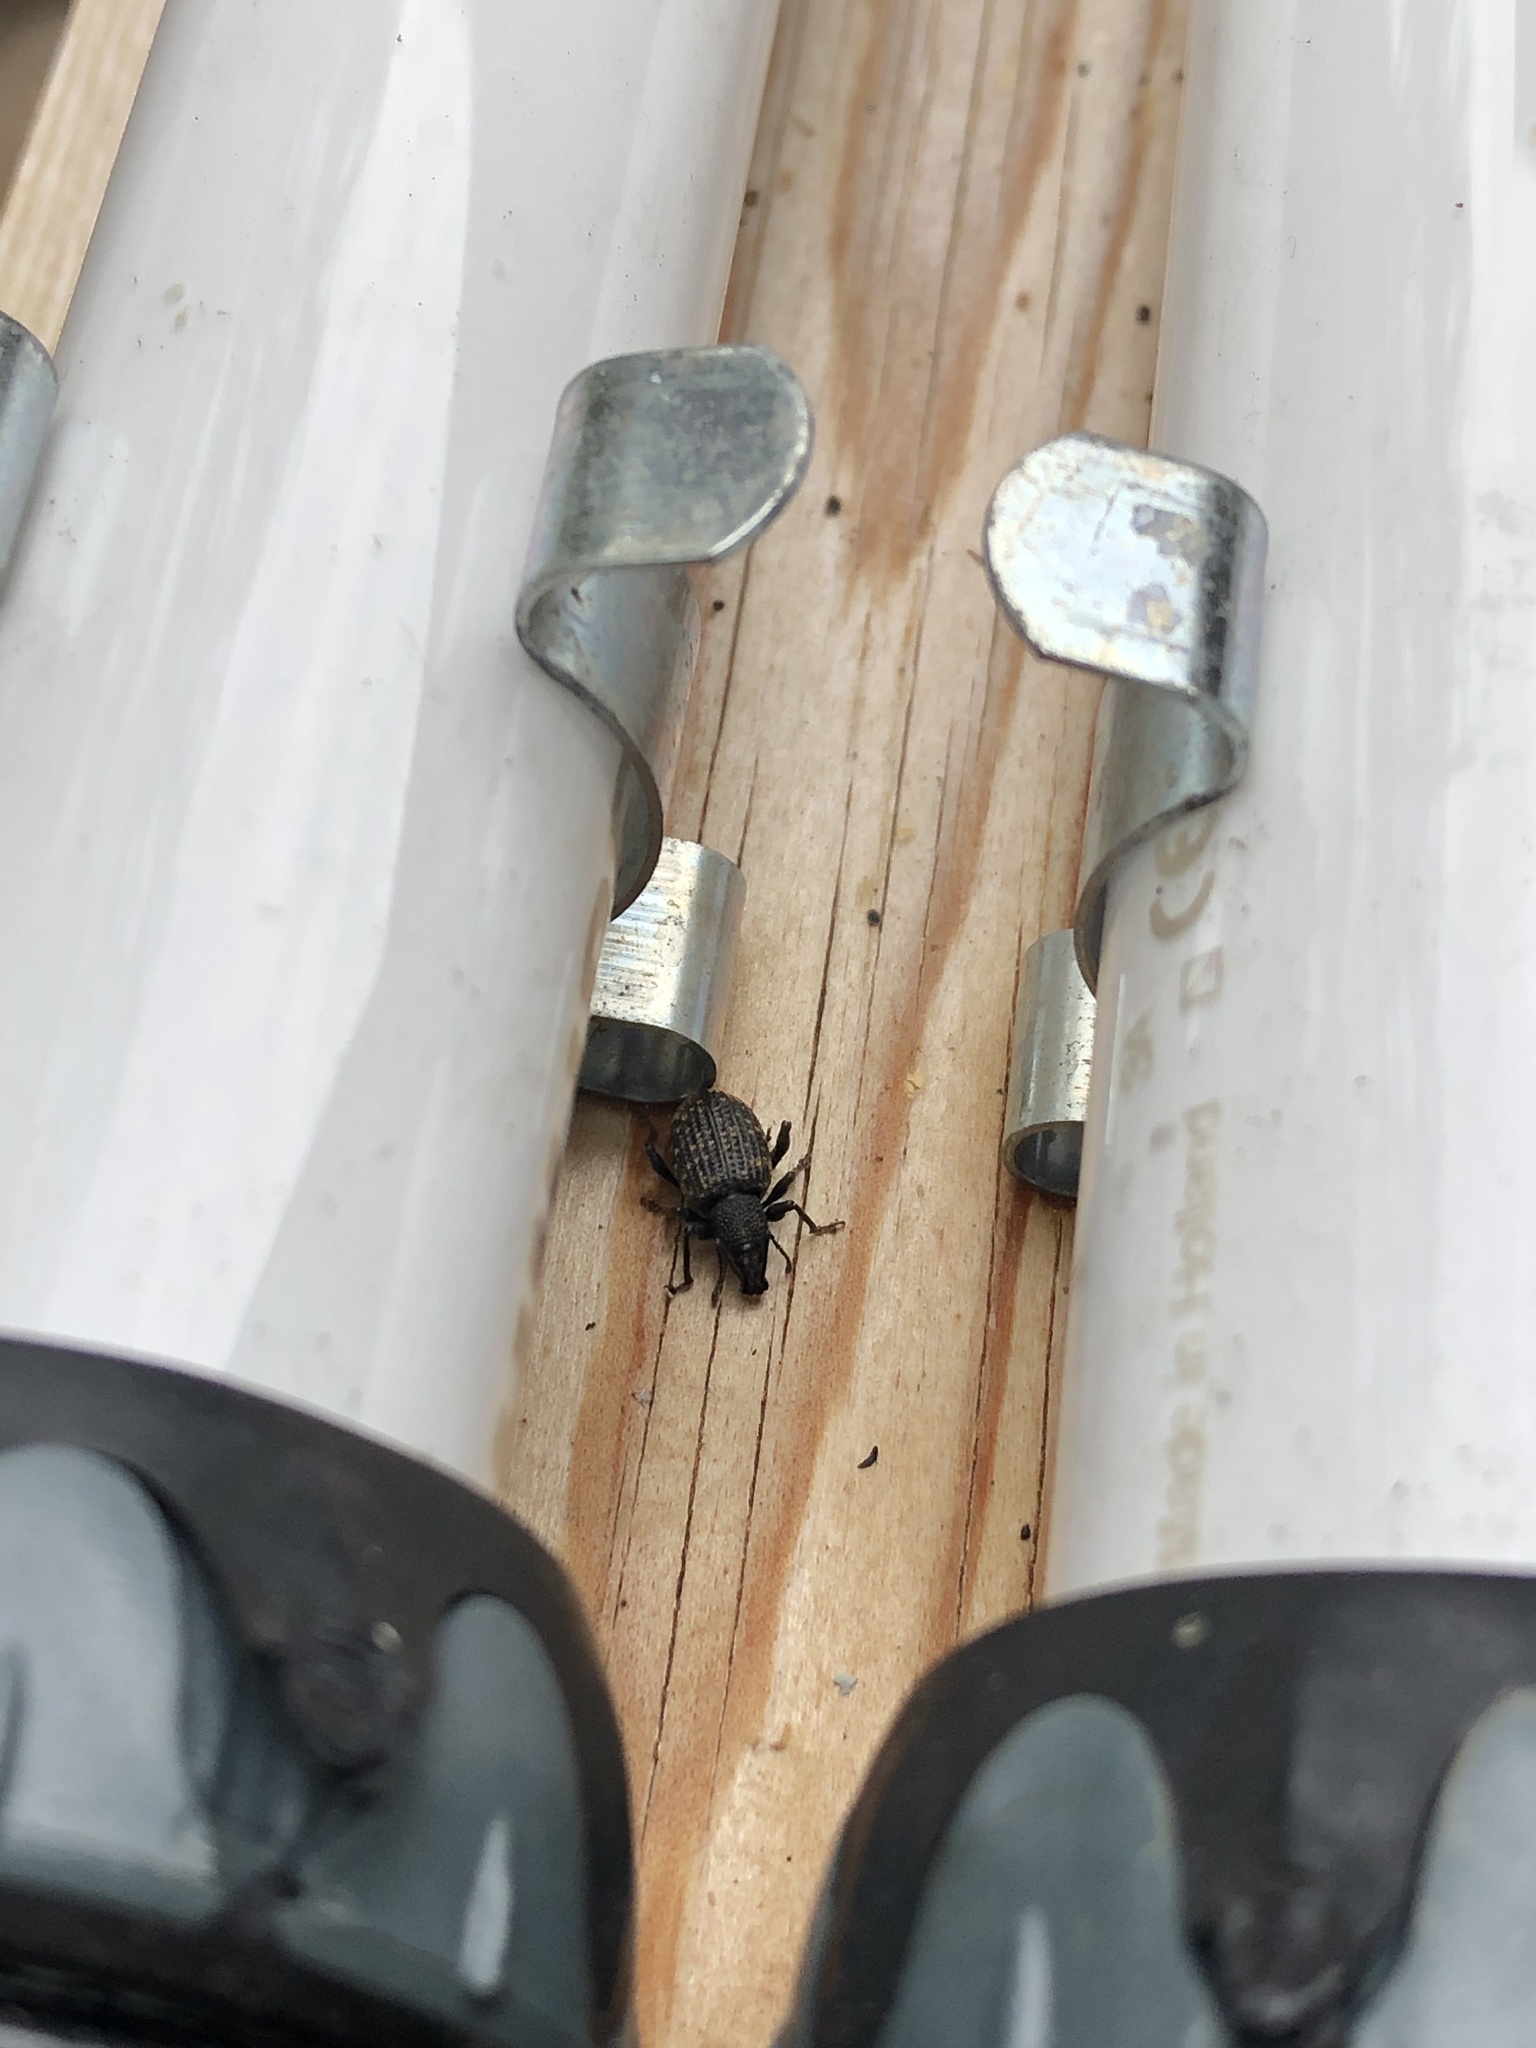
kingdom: Animalia
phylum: Arthropoda
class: Insecta
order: Coleoptera
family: Curculionidae
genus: Otiorhynchus
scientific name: Otiorhynchus sulcatus
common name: Black vine weevil
